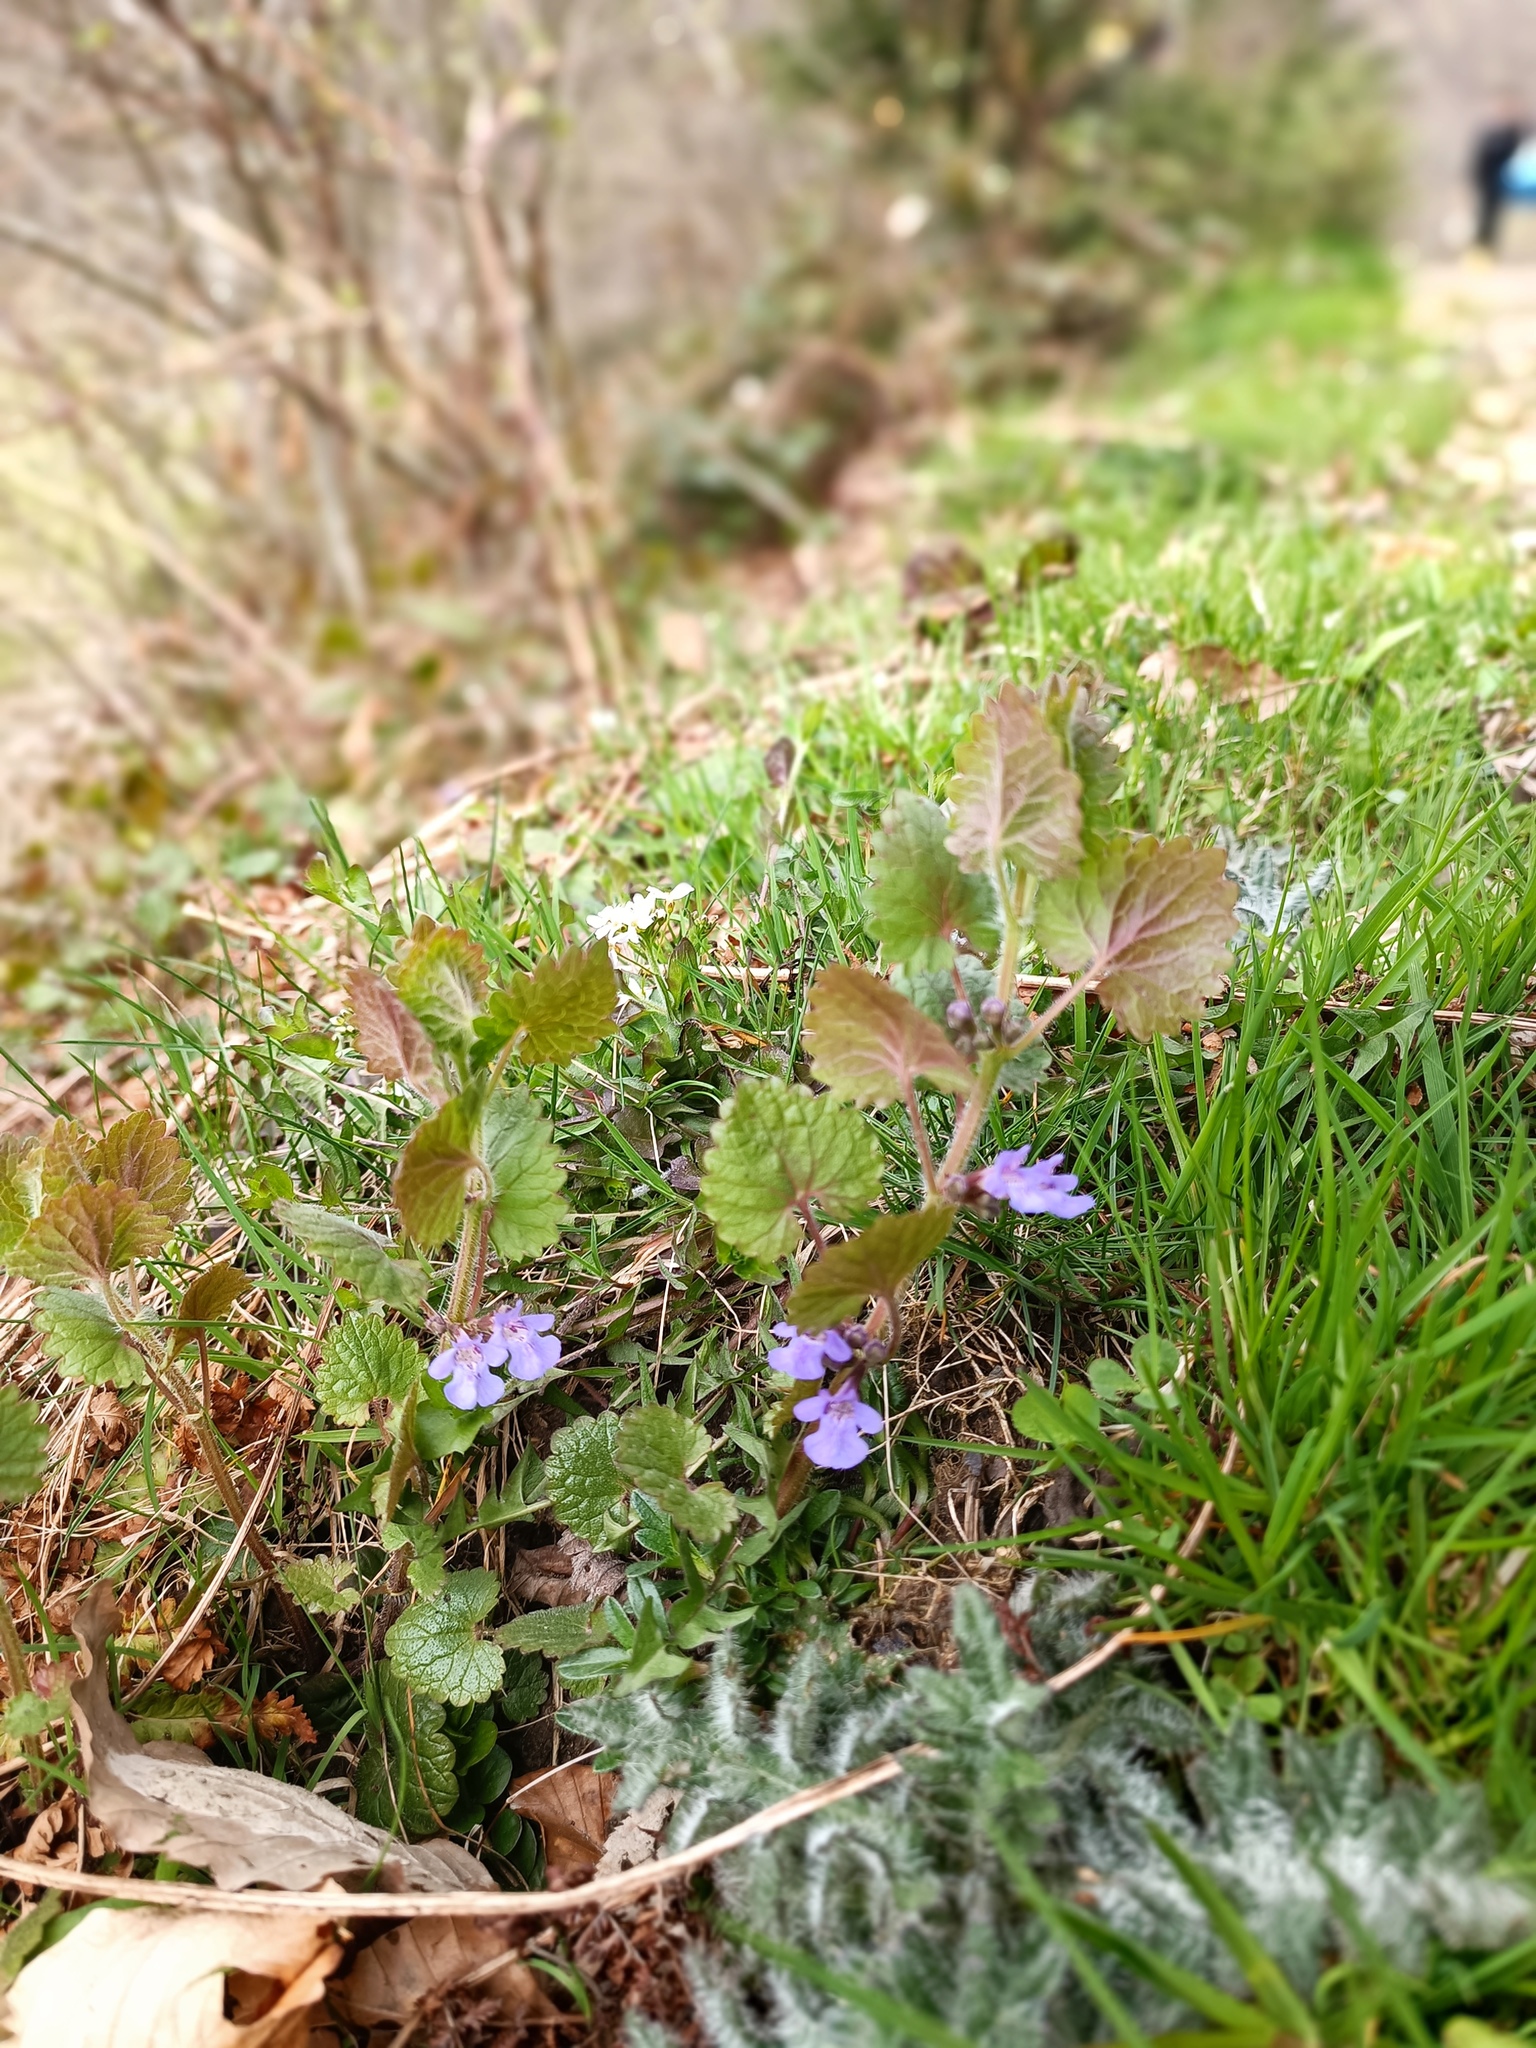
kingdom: Plantae
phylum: Tracheophyta
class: Magnoliopsida
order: Lamiales
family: Lamiaceae
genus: Glechoma
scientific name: Glechoma hirsuta
